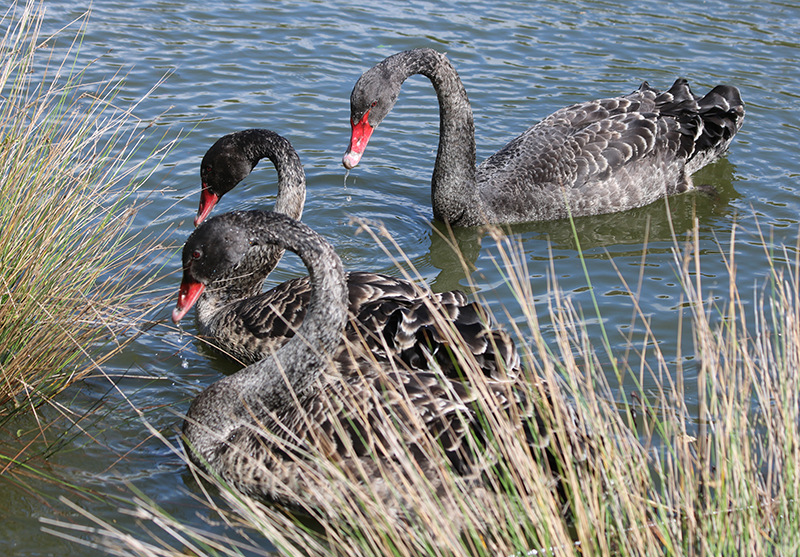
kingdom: Animalia
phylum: Chordata
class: Aves
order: Anseriformes
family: Anatidae
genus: Cygnus
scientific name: Cygnus atratus
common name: Black swan
